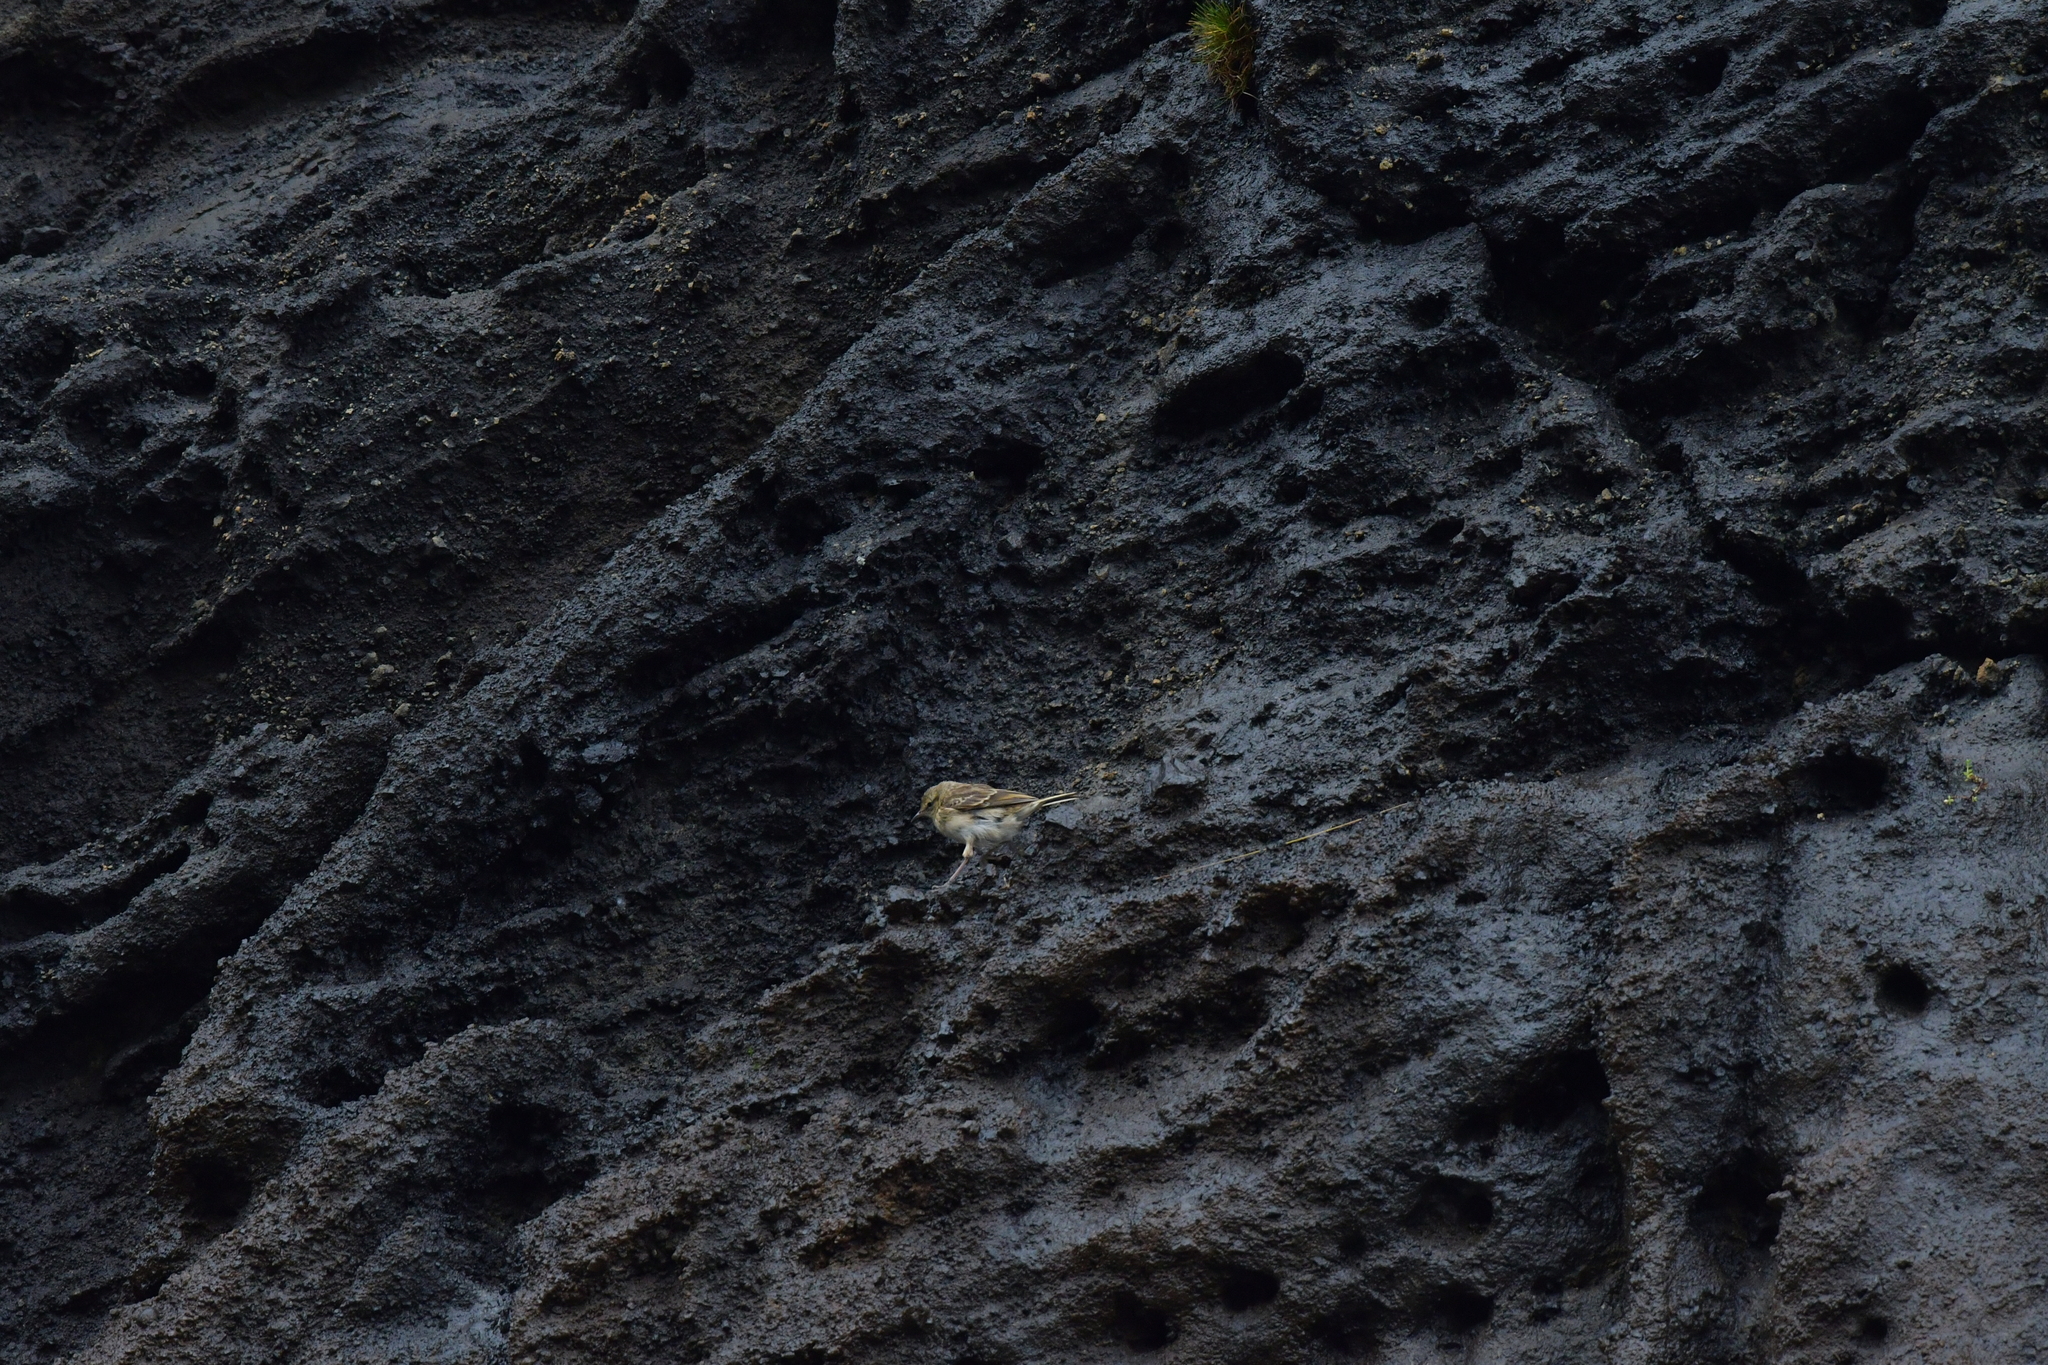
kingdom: Animalia
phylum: Chordata
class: Aves
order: Passeriformes
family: Motacillidae
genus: Anthus
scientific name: Anthus novaeseelandiae
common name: New zealand pipit
